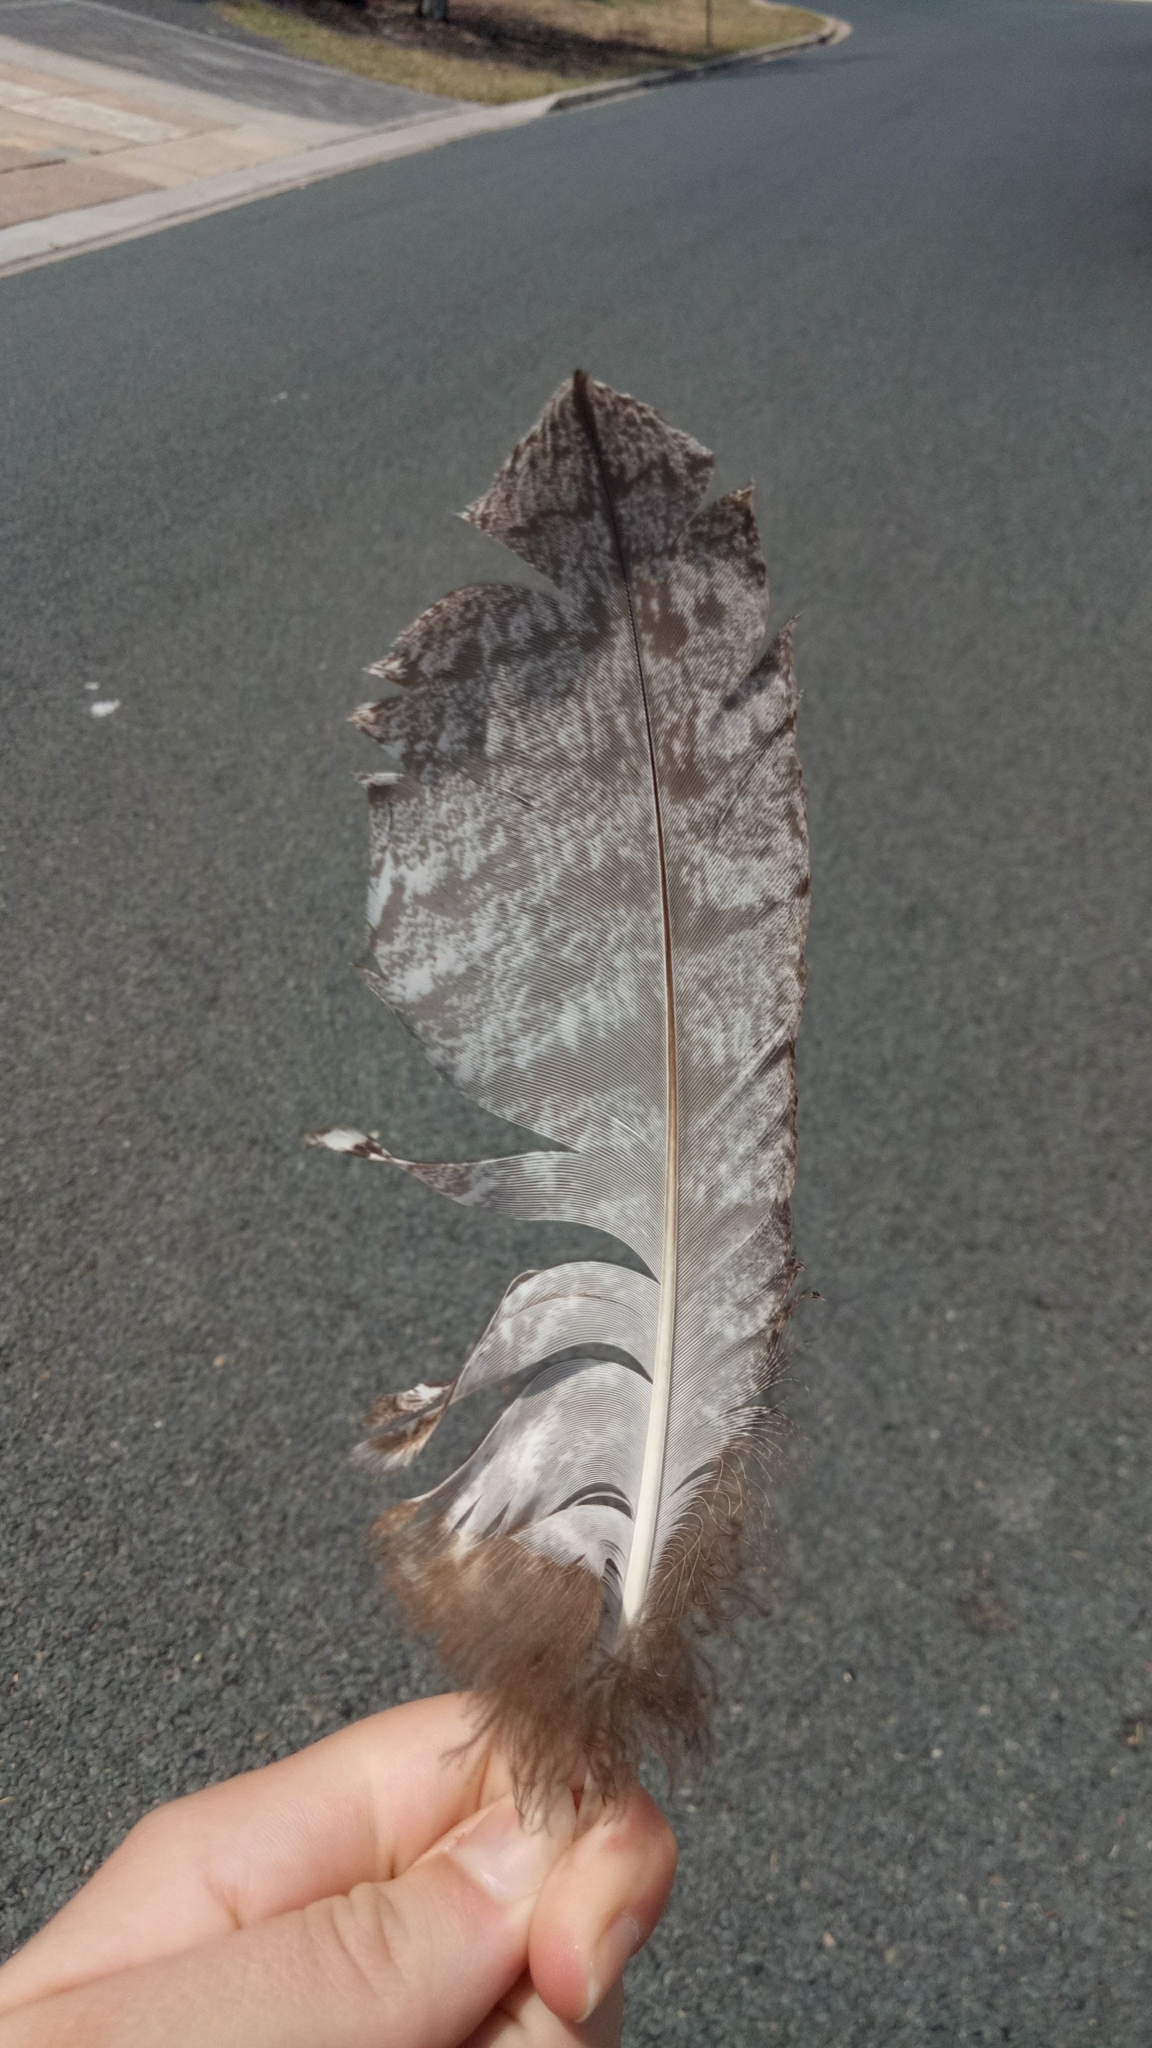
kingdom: Animalia
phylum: Chordata
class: Aves
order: Caprimulgiformes
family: Podargidae
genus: Podargus
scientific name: Podargus strigoides
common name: Tawny frogmouth
